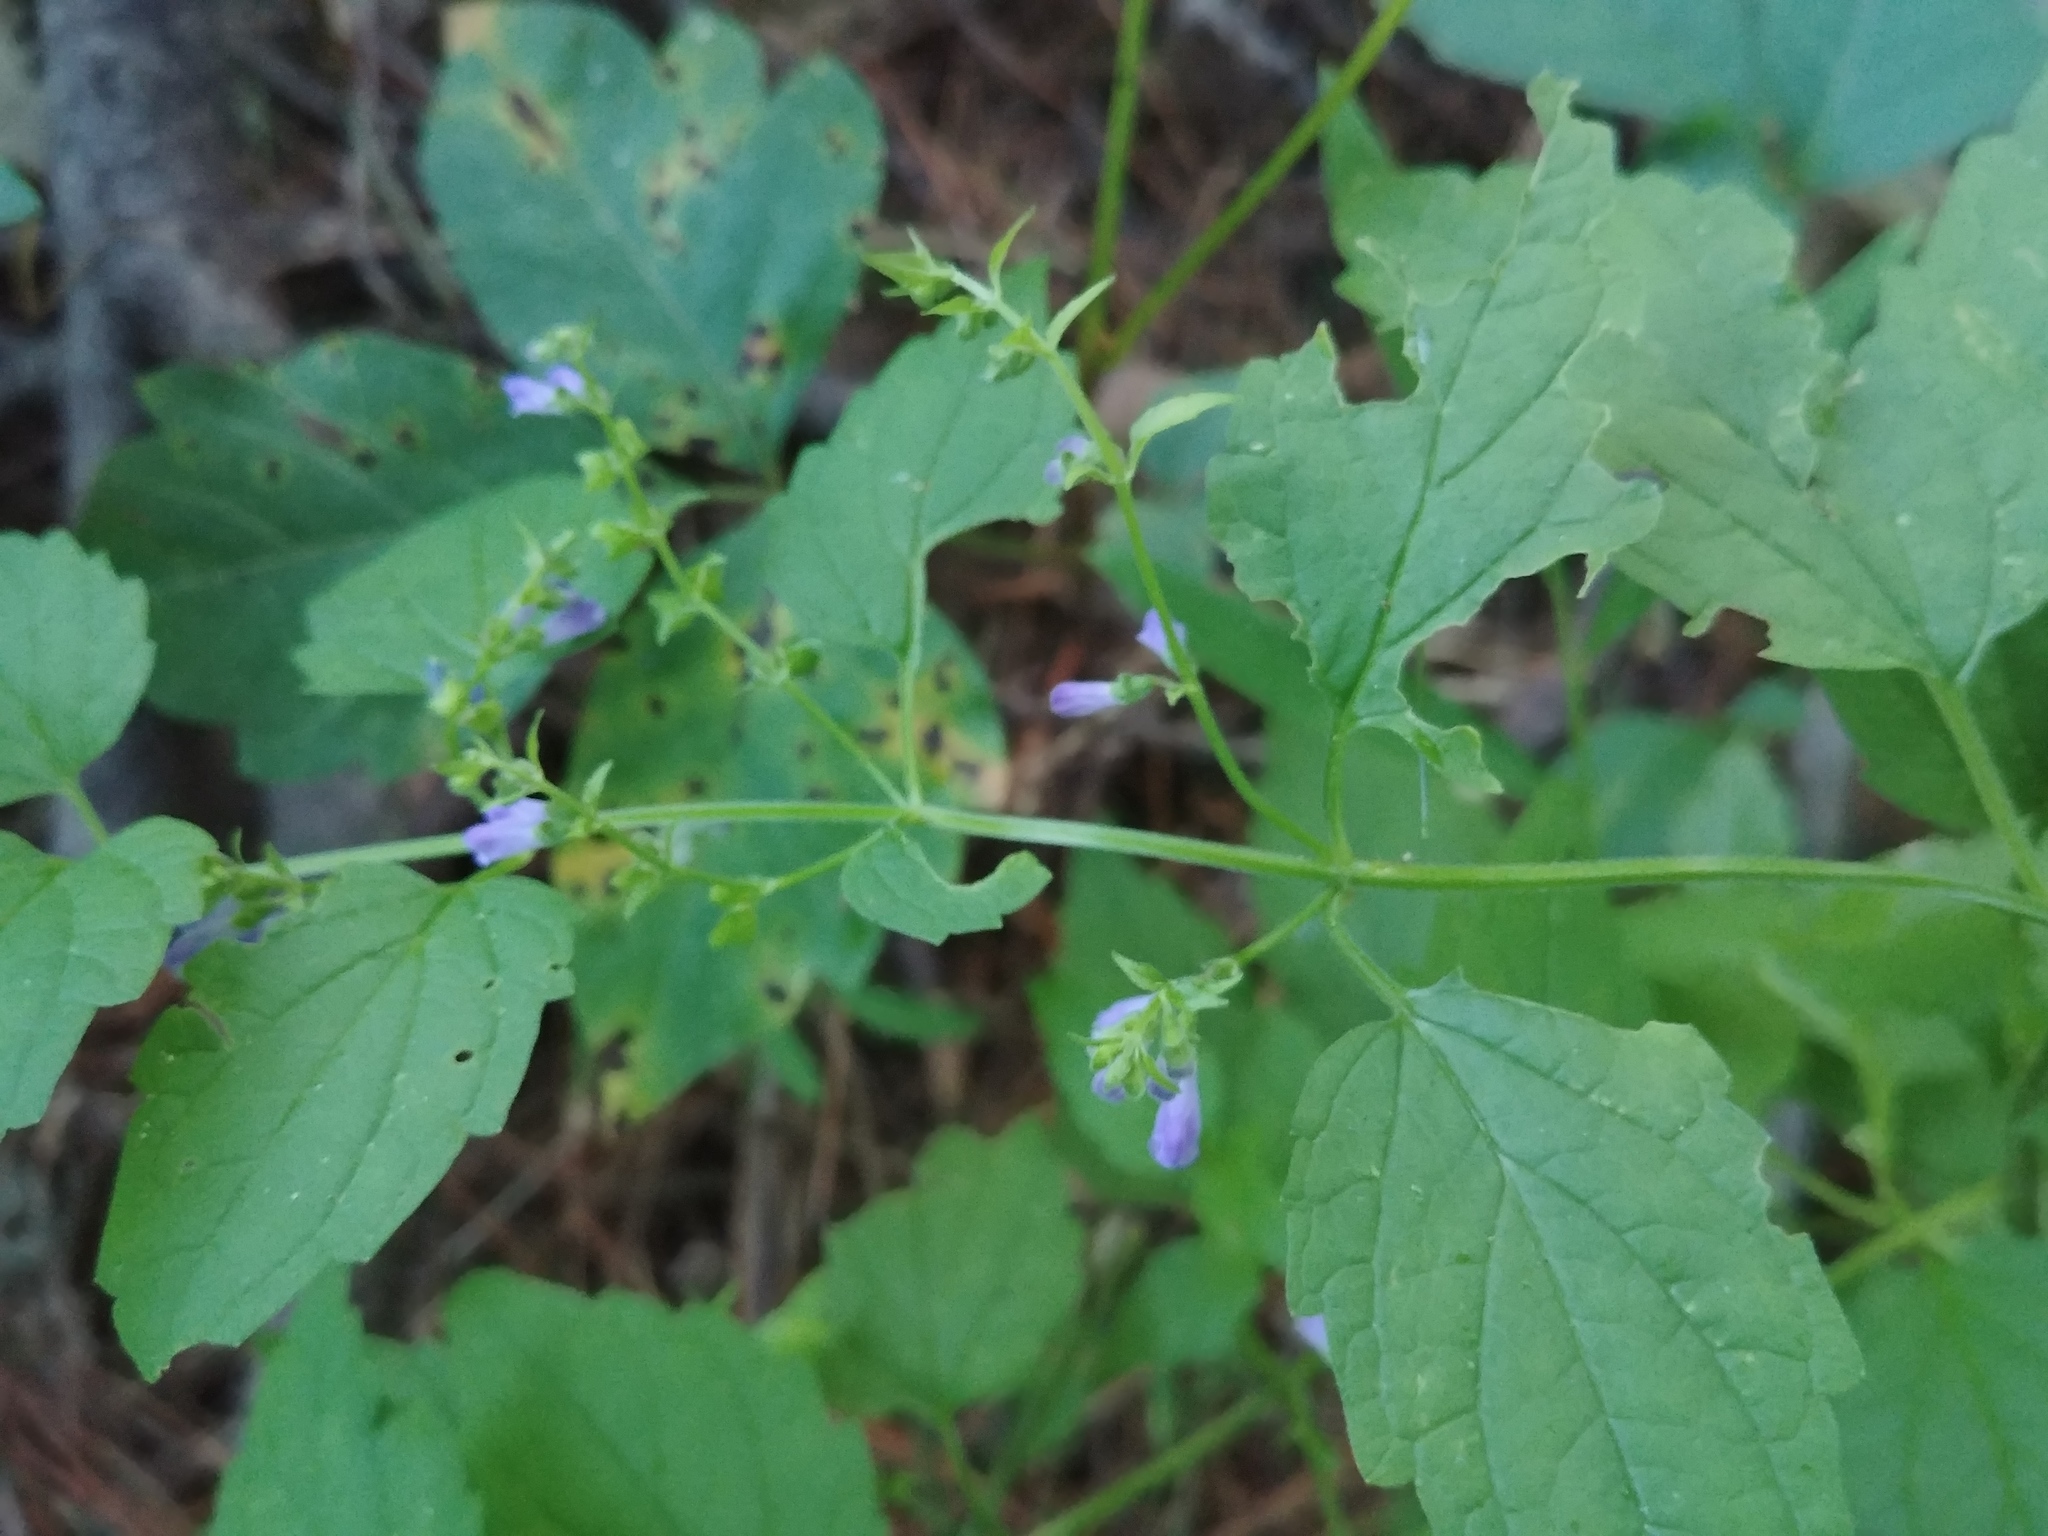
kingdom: Plantae
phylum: Tracheophyta
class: Magnoliopsida
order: Lamiales
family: Lamiaceae
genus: Scutellaria
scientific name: Scutellaria lateriflora
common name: Blue skullcap
